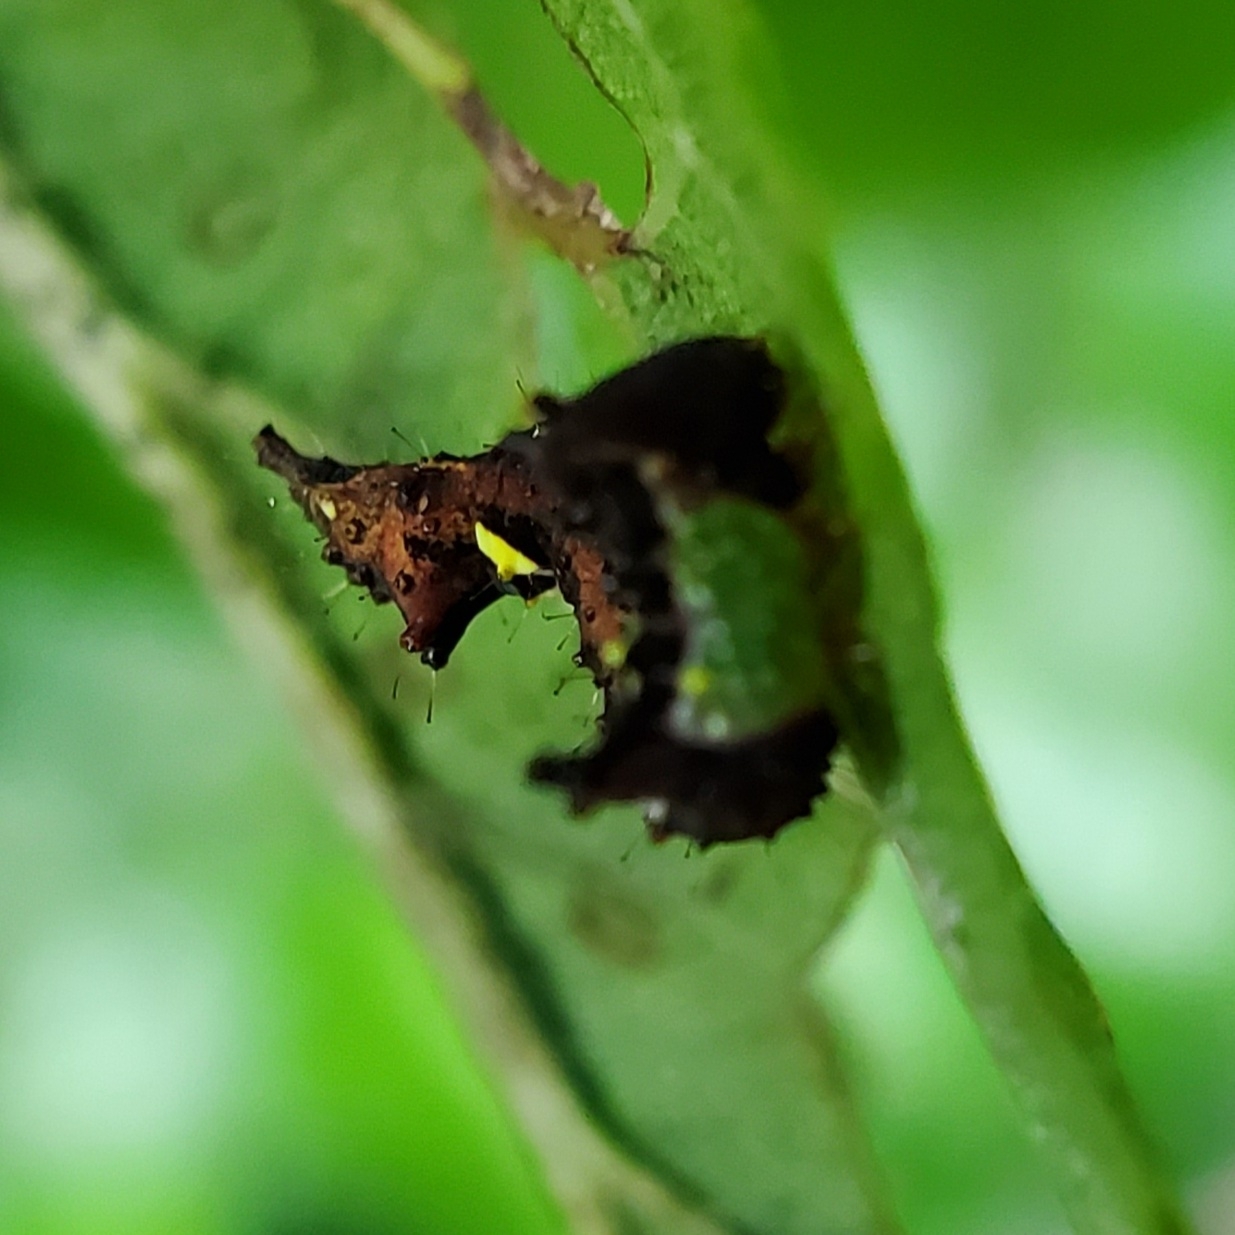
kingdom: Animalia
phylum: Arthropoda
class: Insecta
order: Lepidoptera
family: Notodontidae
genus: Schizura
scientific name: Schizura
